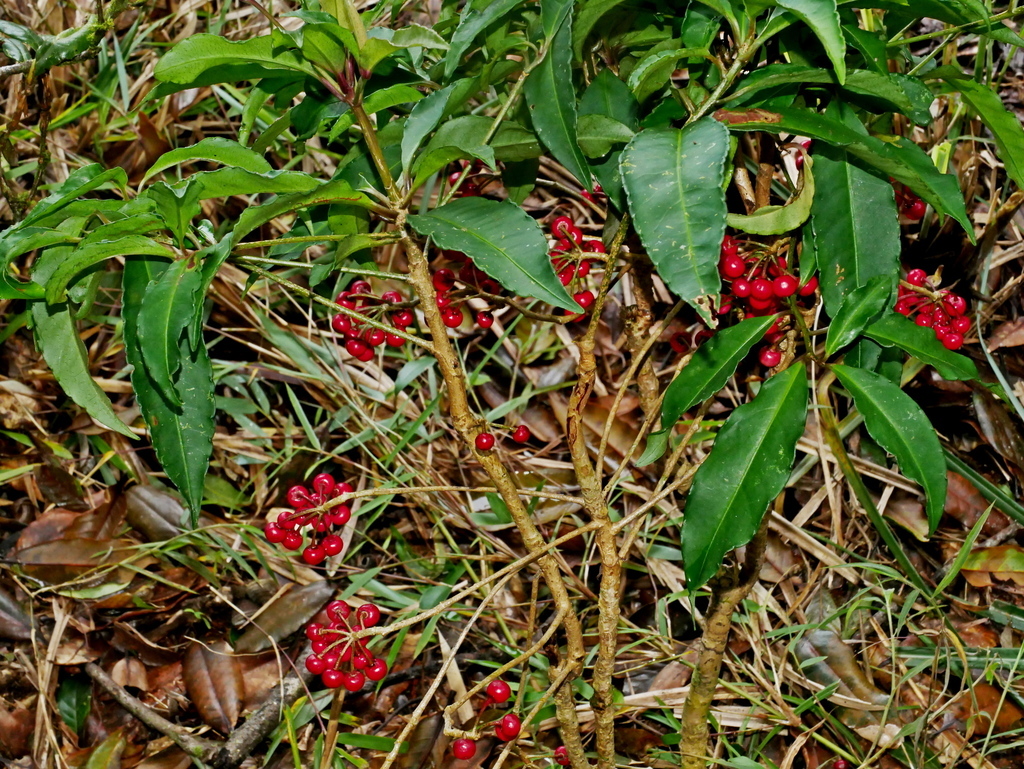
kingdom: Plantae
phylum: Tracheophyta
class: Magnoliopsida
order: Ericales
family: Primulaceae
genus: Ardisia
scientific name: Ardisia crenata
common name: Hen's eyes
